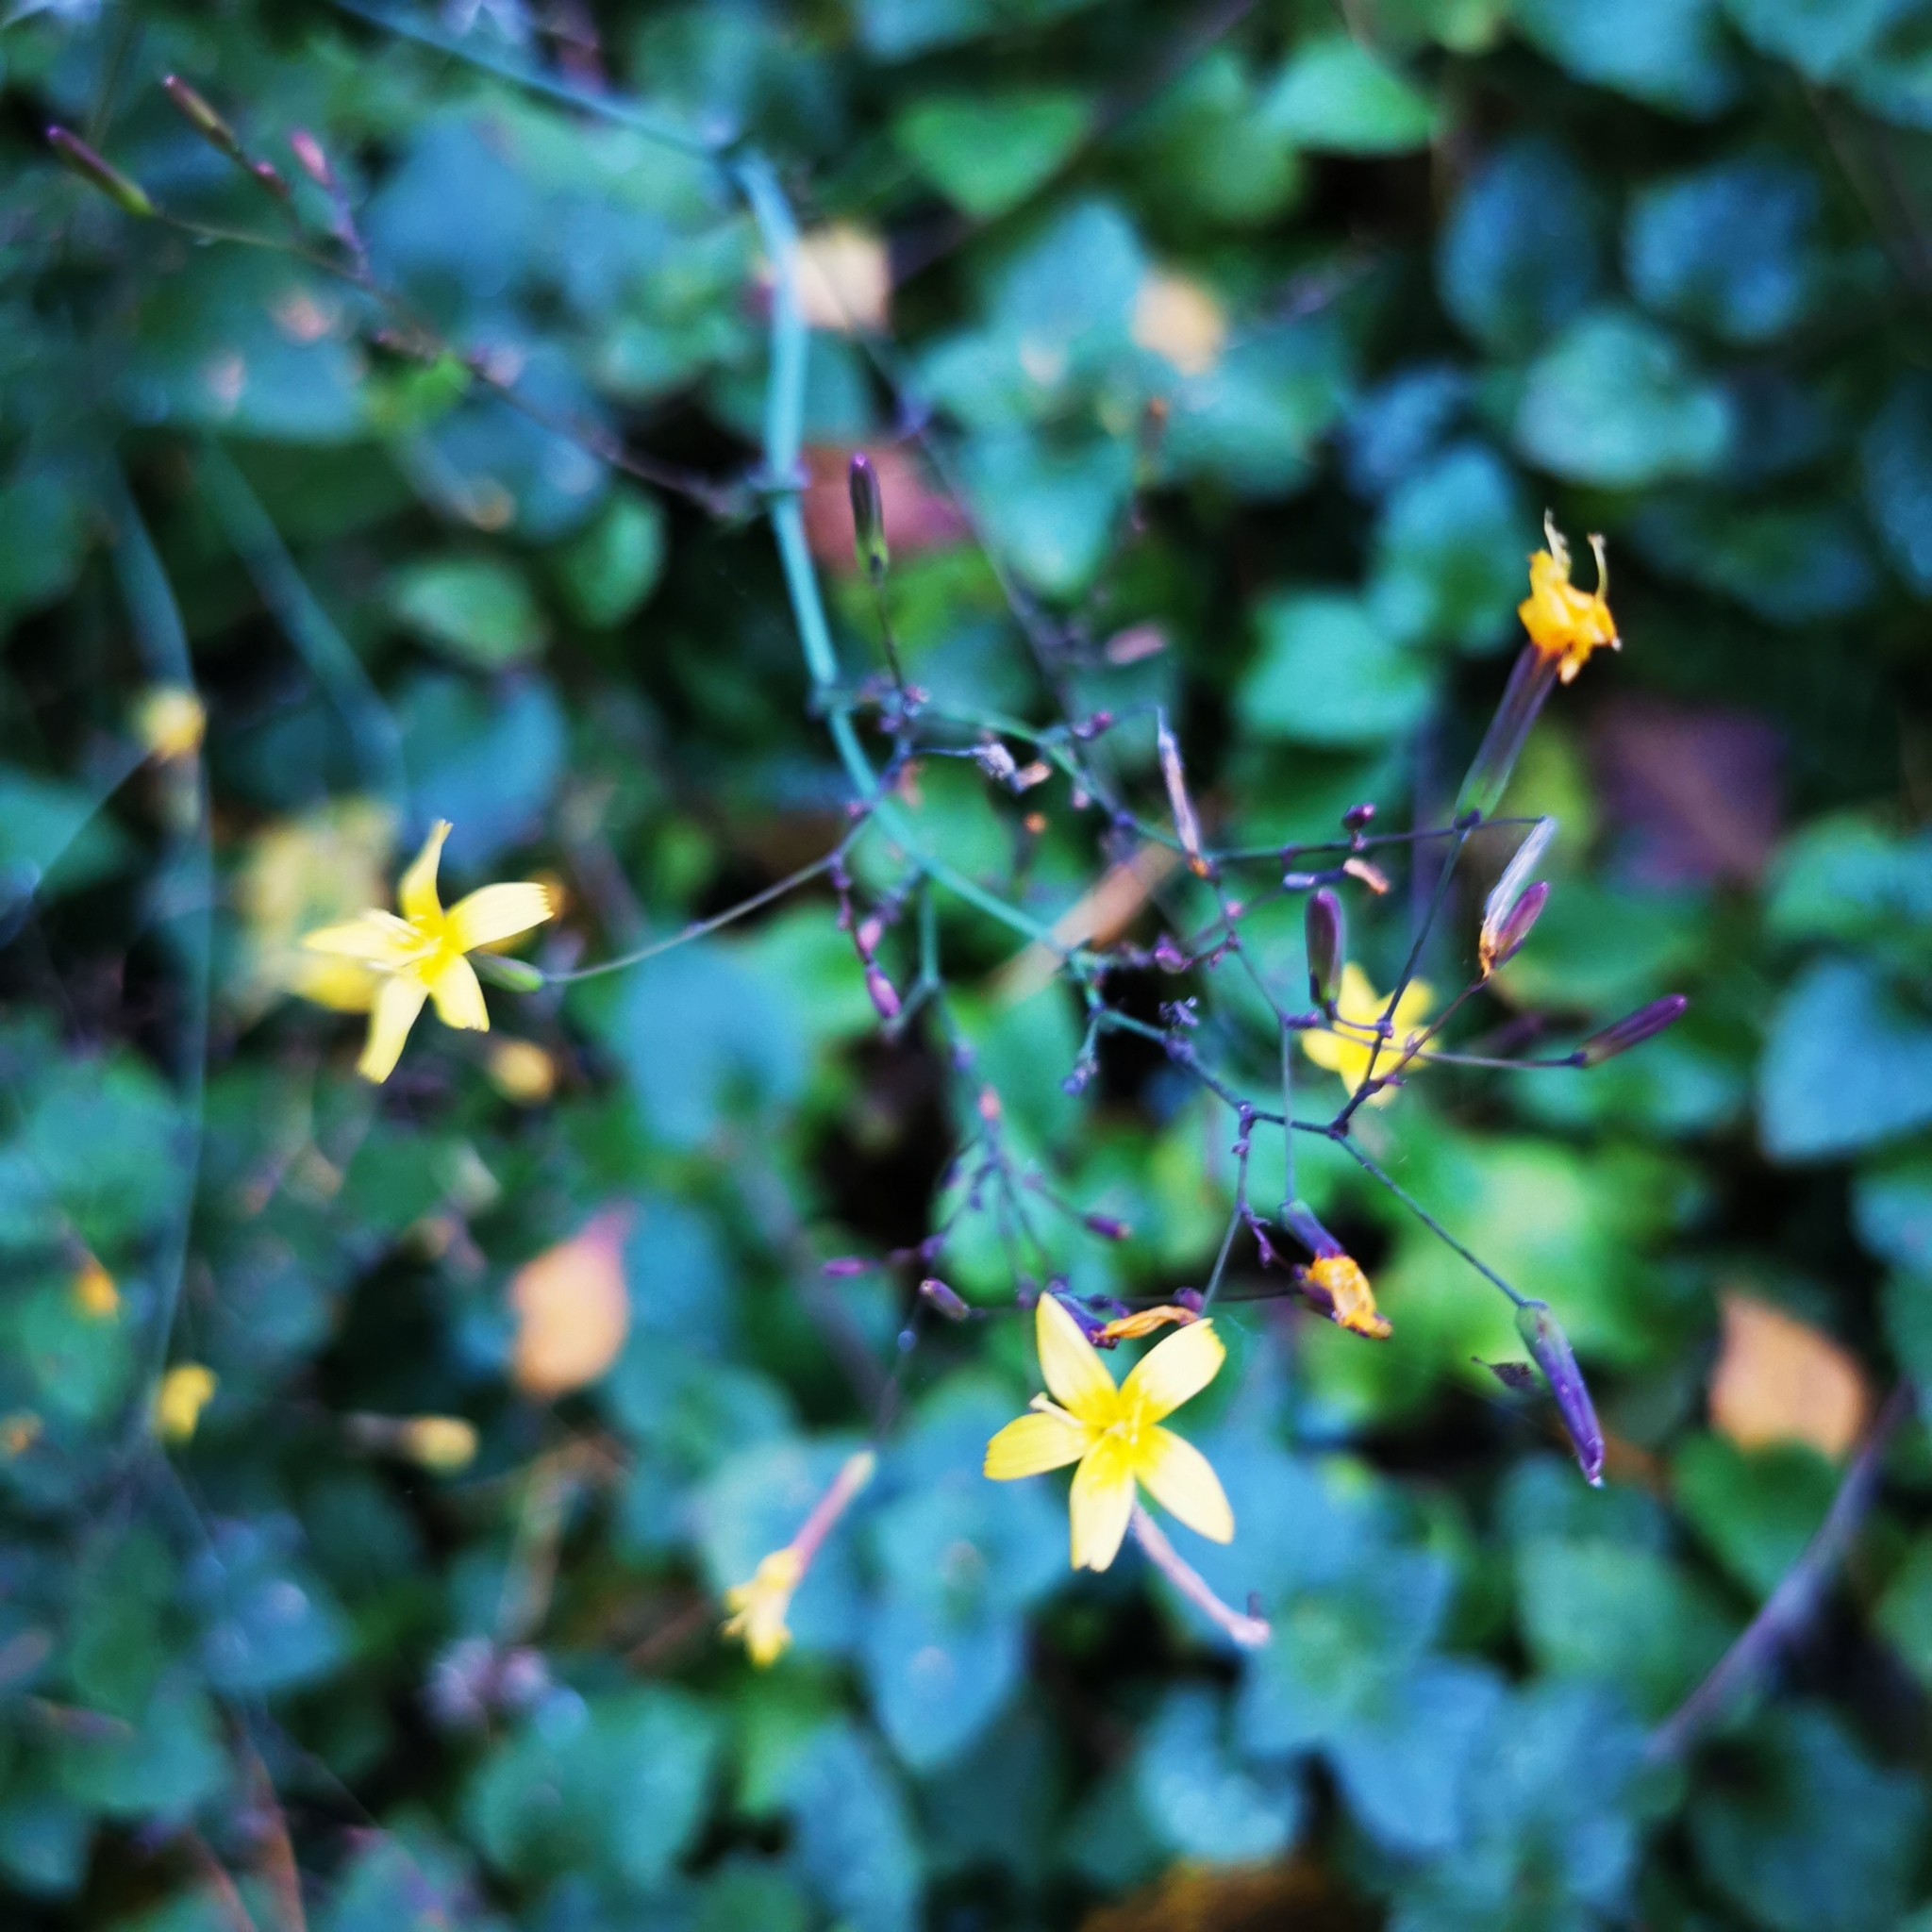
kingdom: Plantae
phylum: Tracheophyta
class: Magnoliopsida
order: Asterales
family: Asteraceae
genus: Mycelis
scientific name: Mycelis muralis
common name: Wall lettuce
